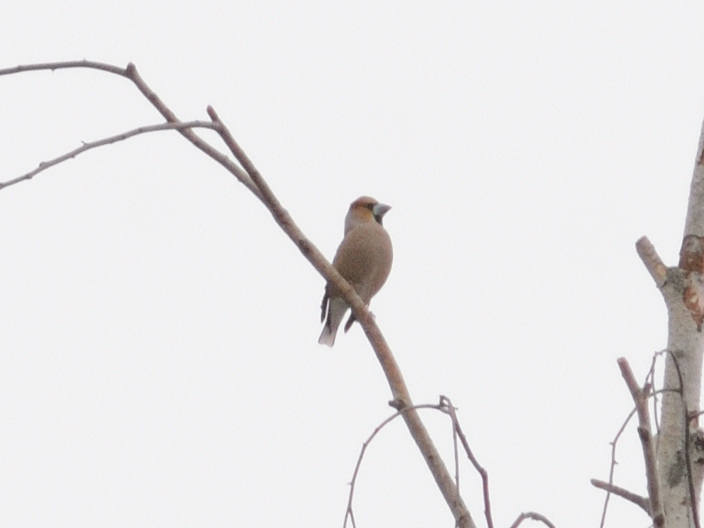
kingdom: Animalia
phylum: Chordata
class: Aves
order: Passeriformes
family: Fringillidae
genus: Coccothraustes
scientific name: Coccothraustes coccothraustes
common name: Hawfinch
